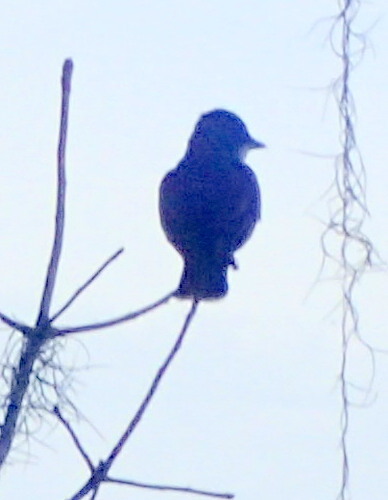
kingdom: Animalia
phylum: Chordata
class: Aves
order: Passeriformes
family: Tyrannidae
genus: Tyrannus
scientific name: Tyrannus tyrannus
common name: Eastern kingbird
